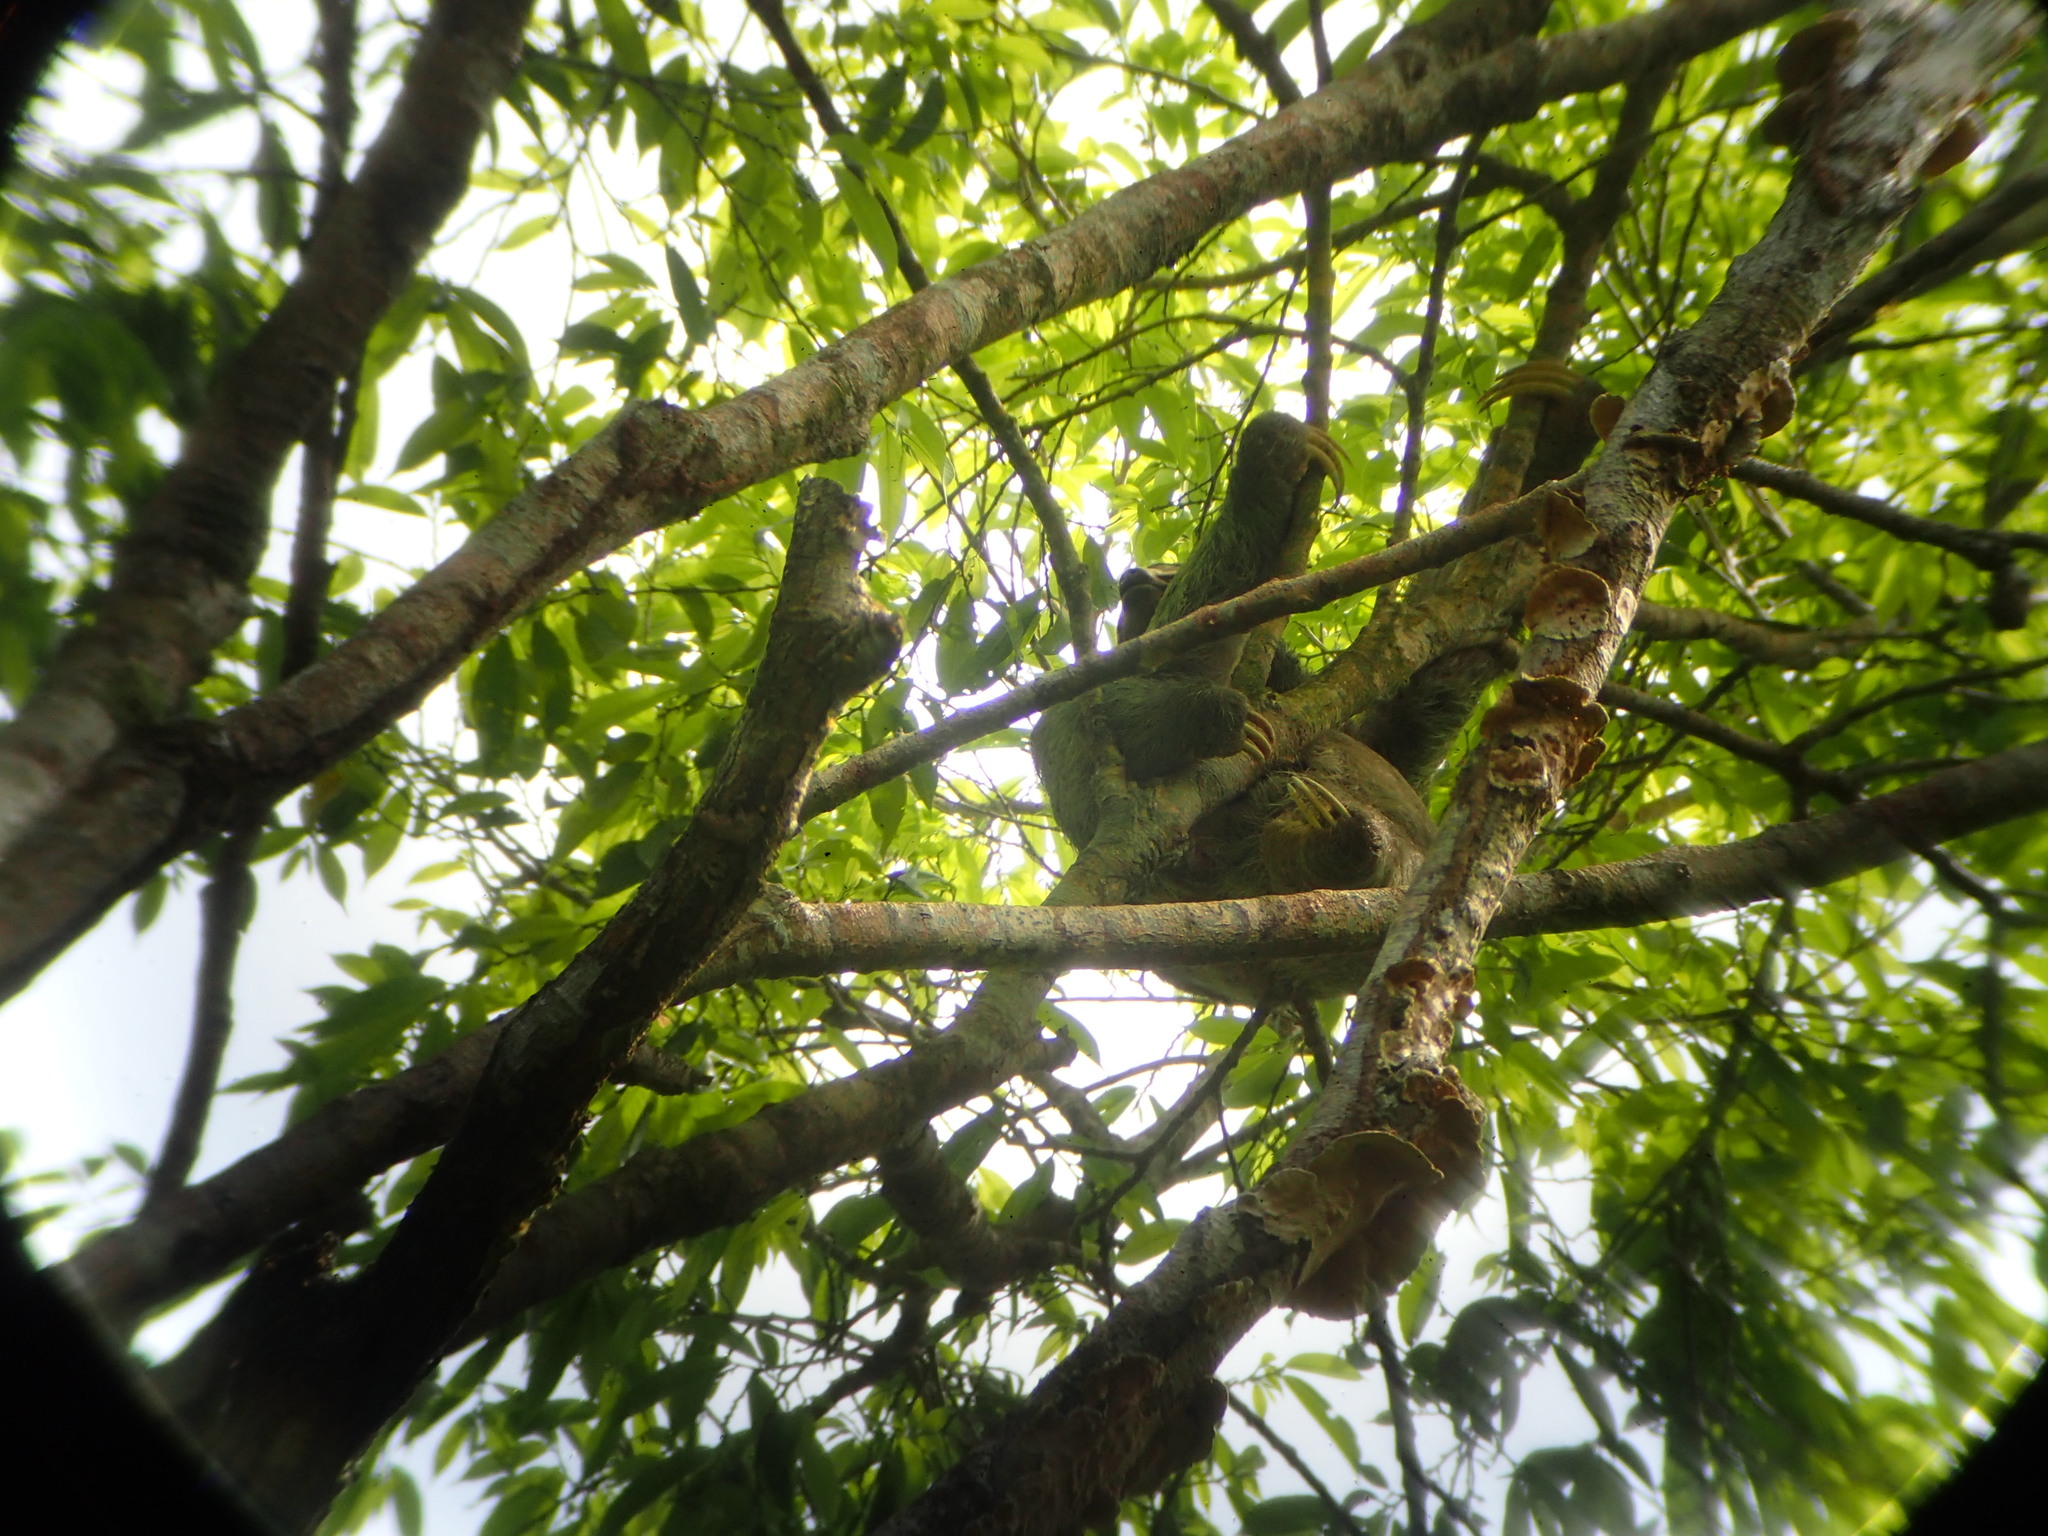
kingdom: Animalia
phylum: Chordata
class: Mammalia
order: Pilosa
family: Bradypodidae
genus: Bradypus
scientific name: Bradypus variegatus
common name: Brown-throated three-toed sloth
